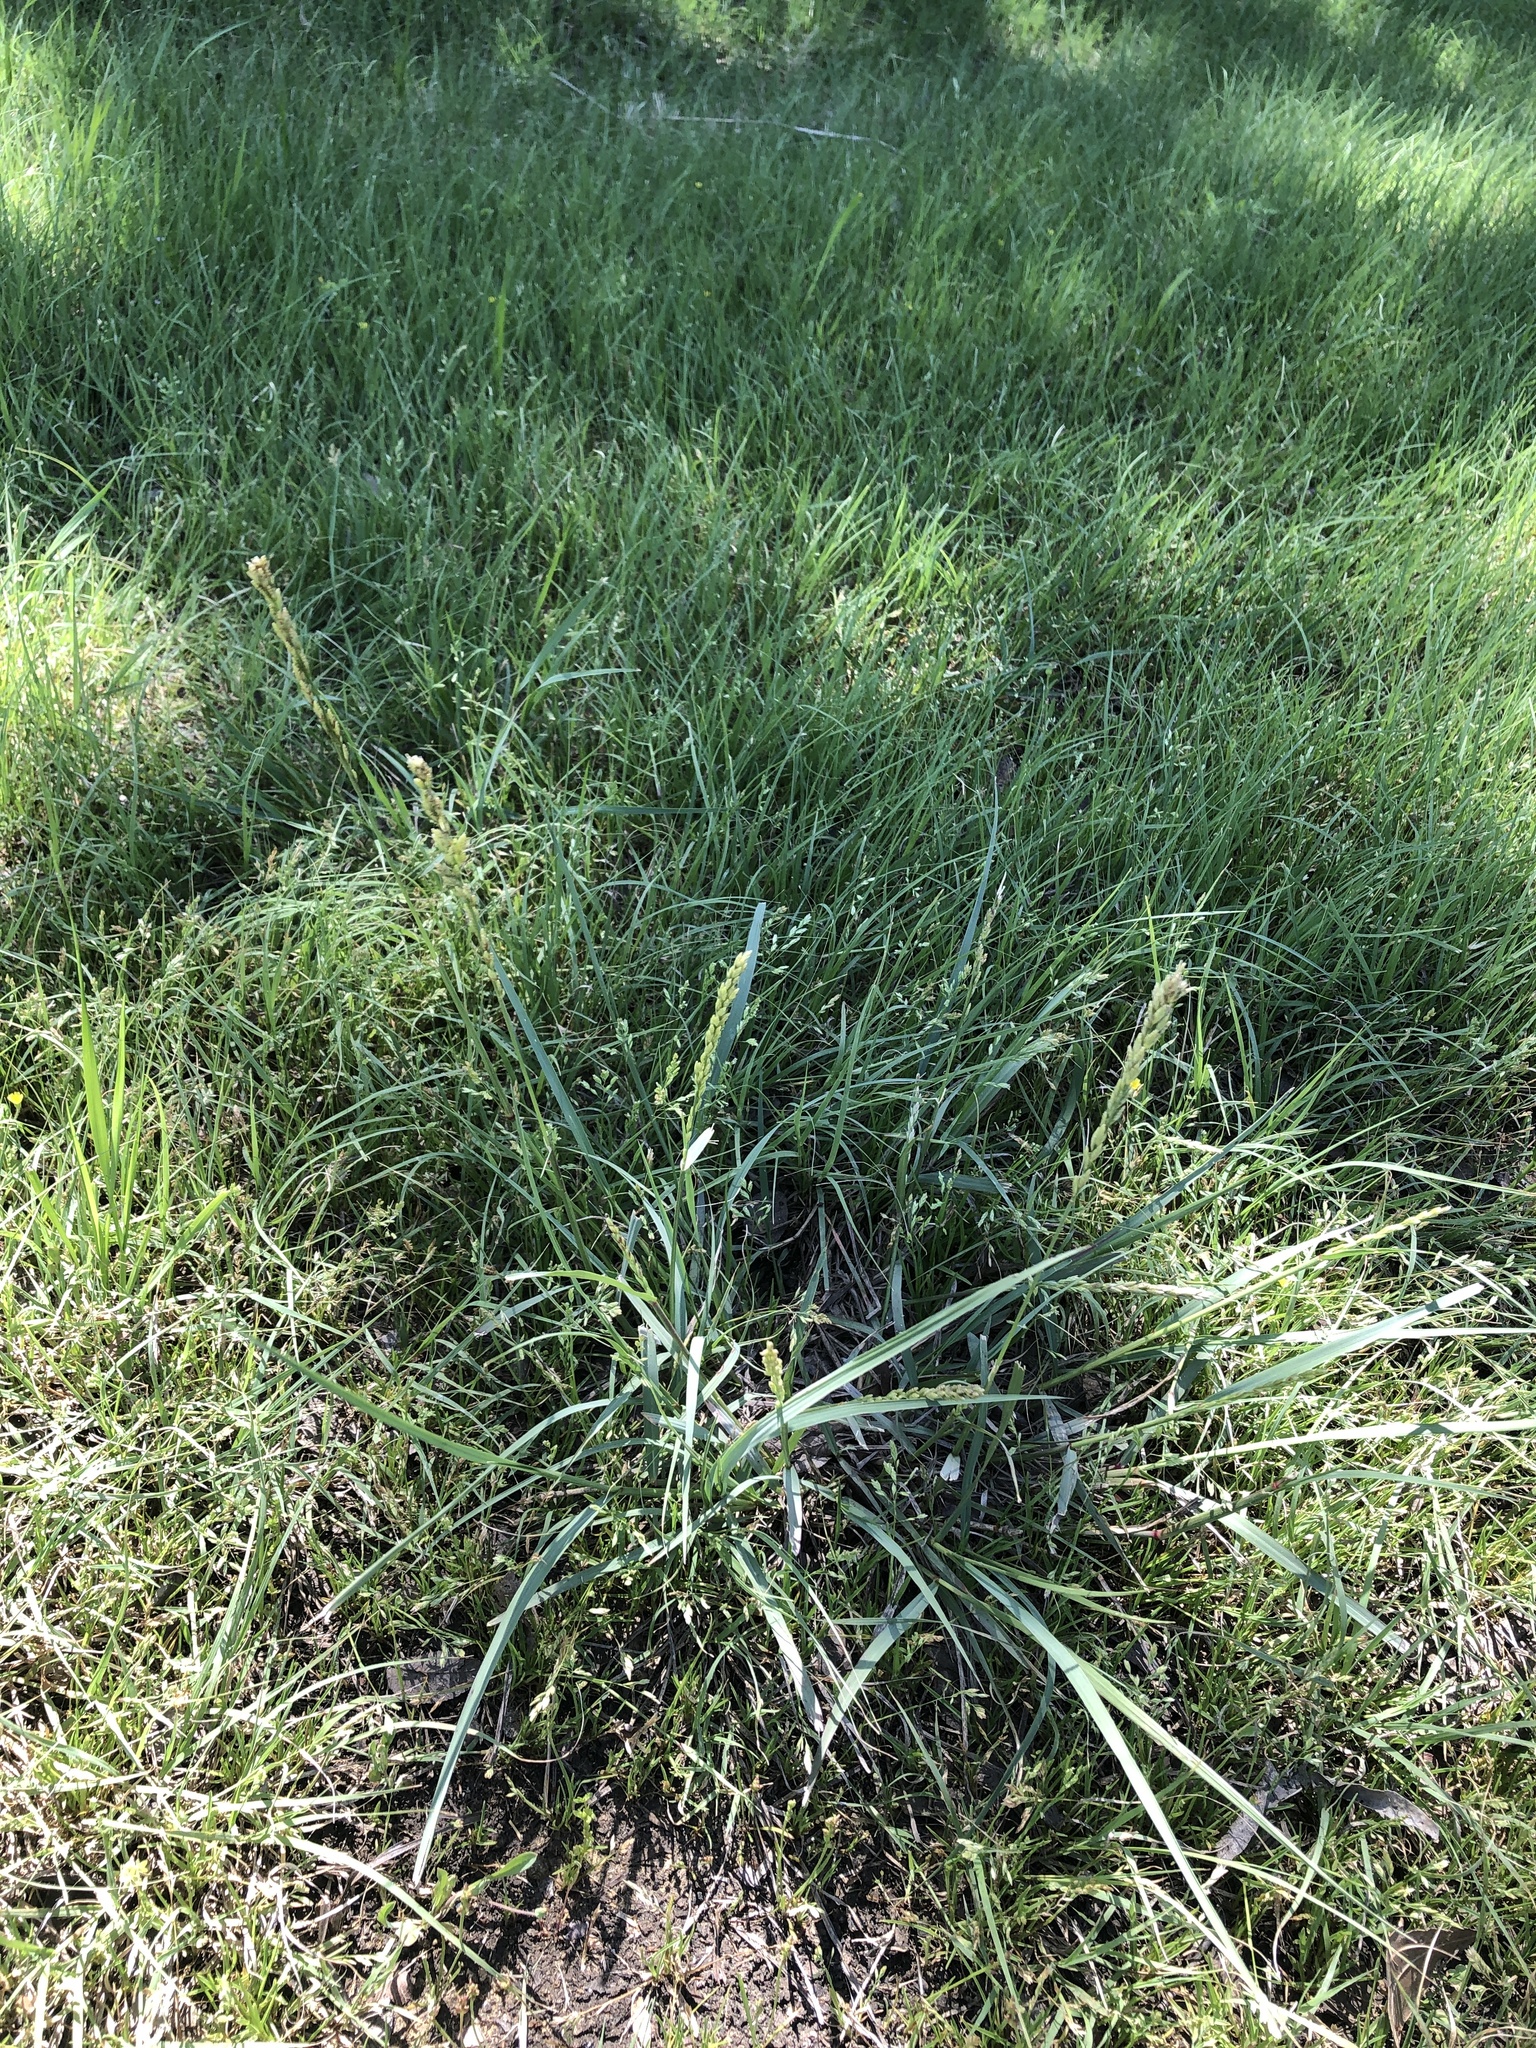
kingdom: Plantae
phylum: Tracheophyta
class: Liliopsida
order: Poales
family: Poaceae
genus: Tridens
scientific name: Tridens albescens
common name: White tridens
